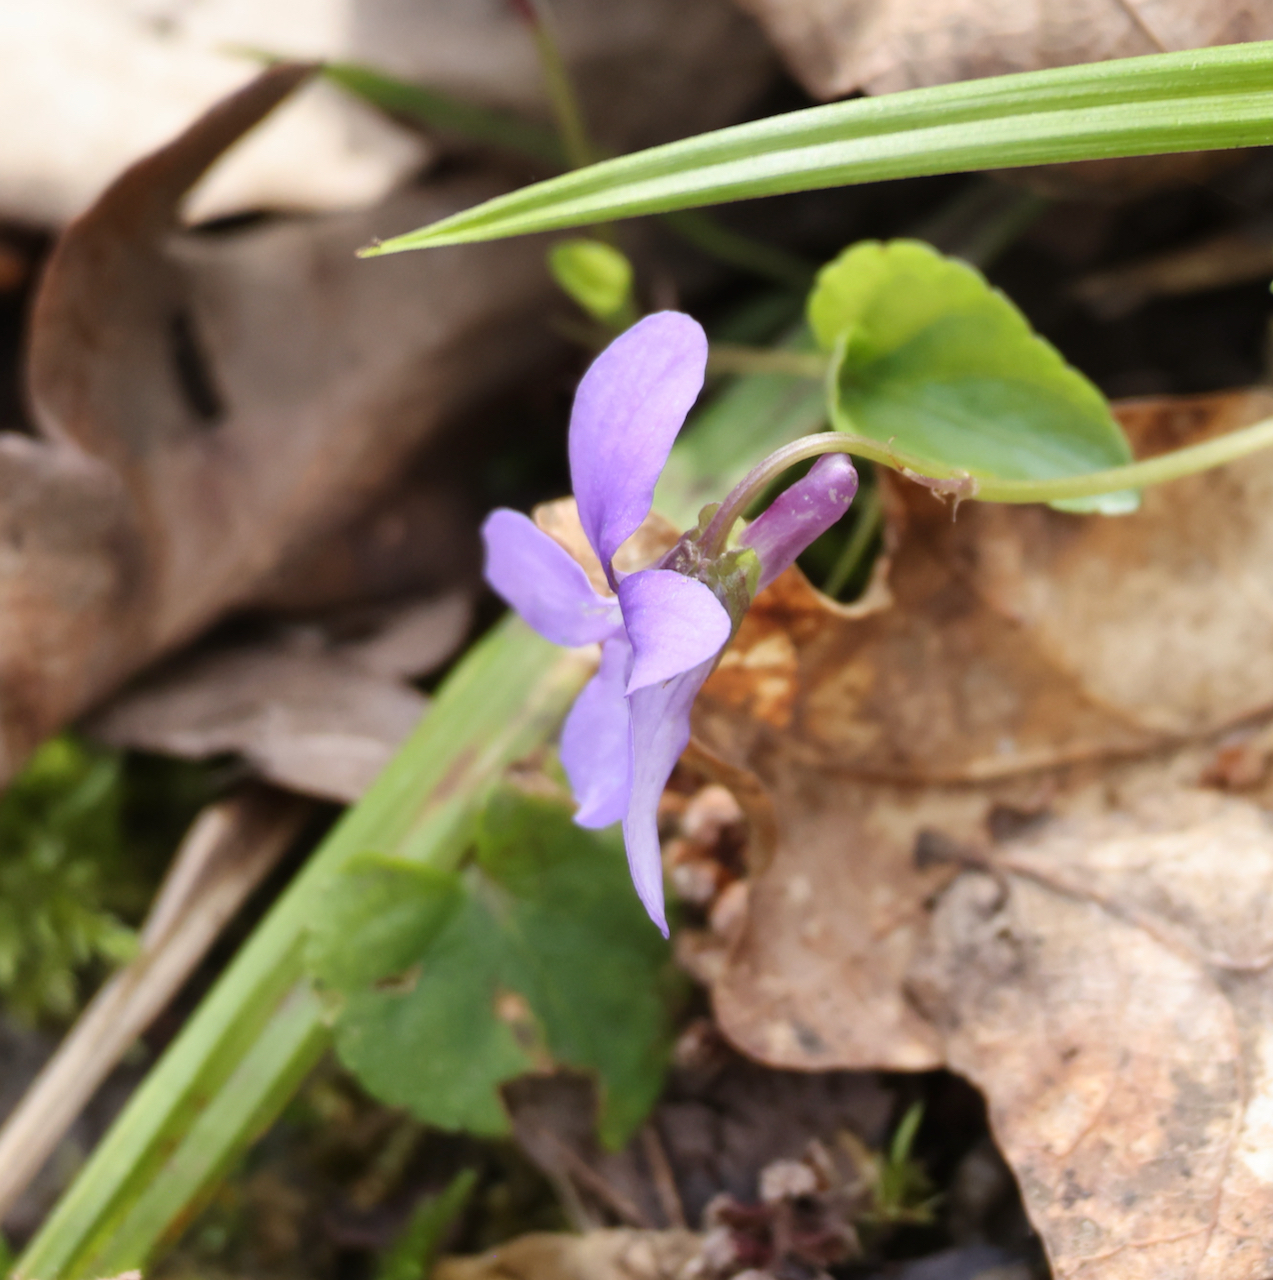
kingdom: Plantae
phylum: Tracheophyta
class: Magnoliopsida
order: Malpighiales
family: Violaceae
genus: Viola
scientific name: Viola reichenbachiana
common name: Early dog-violet
